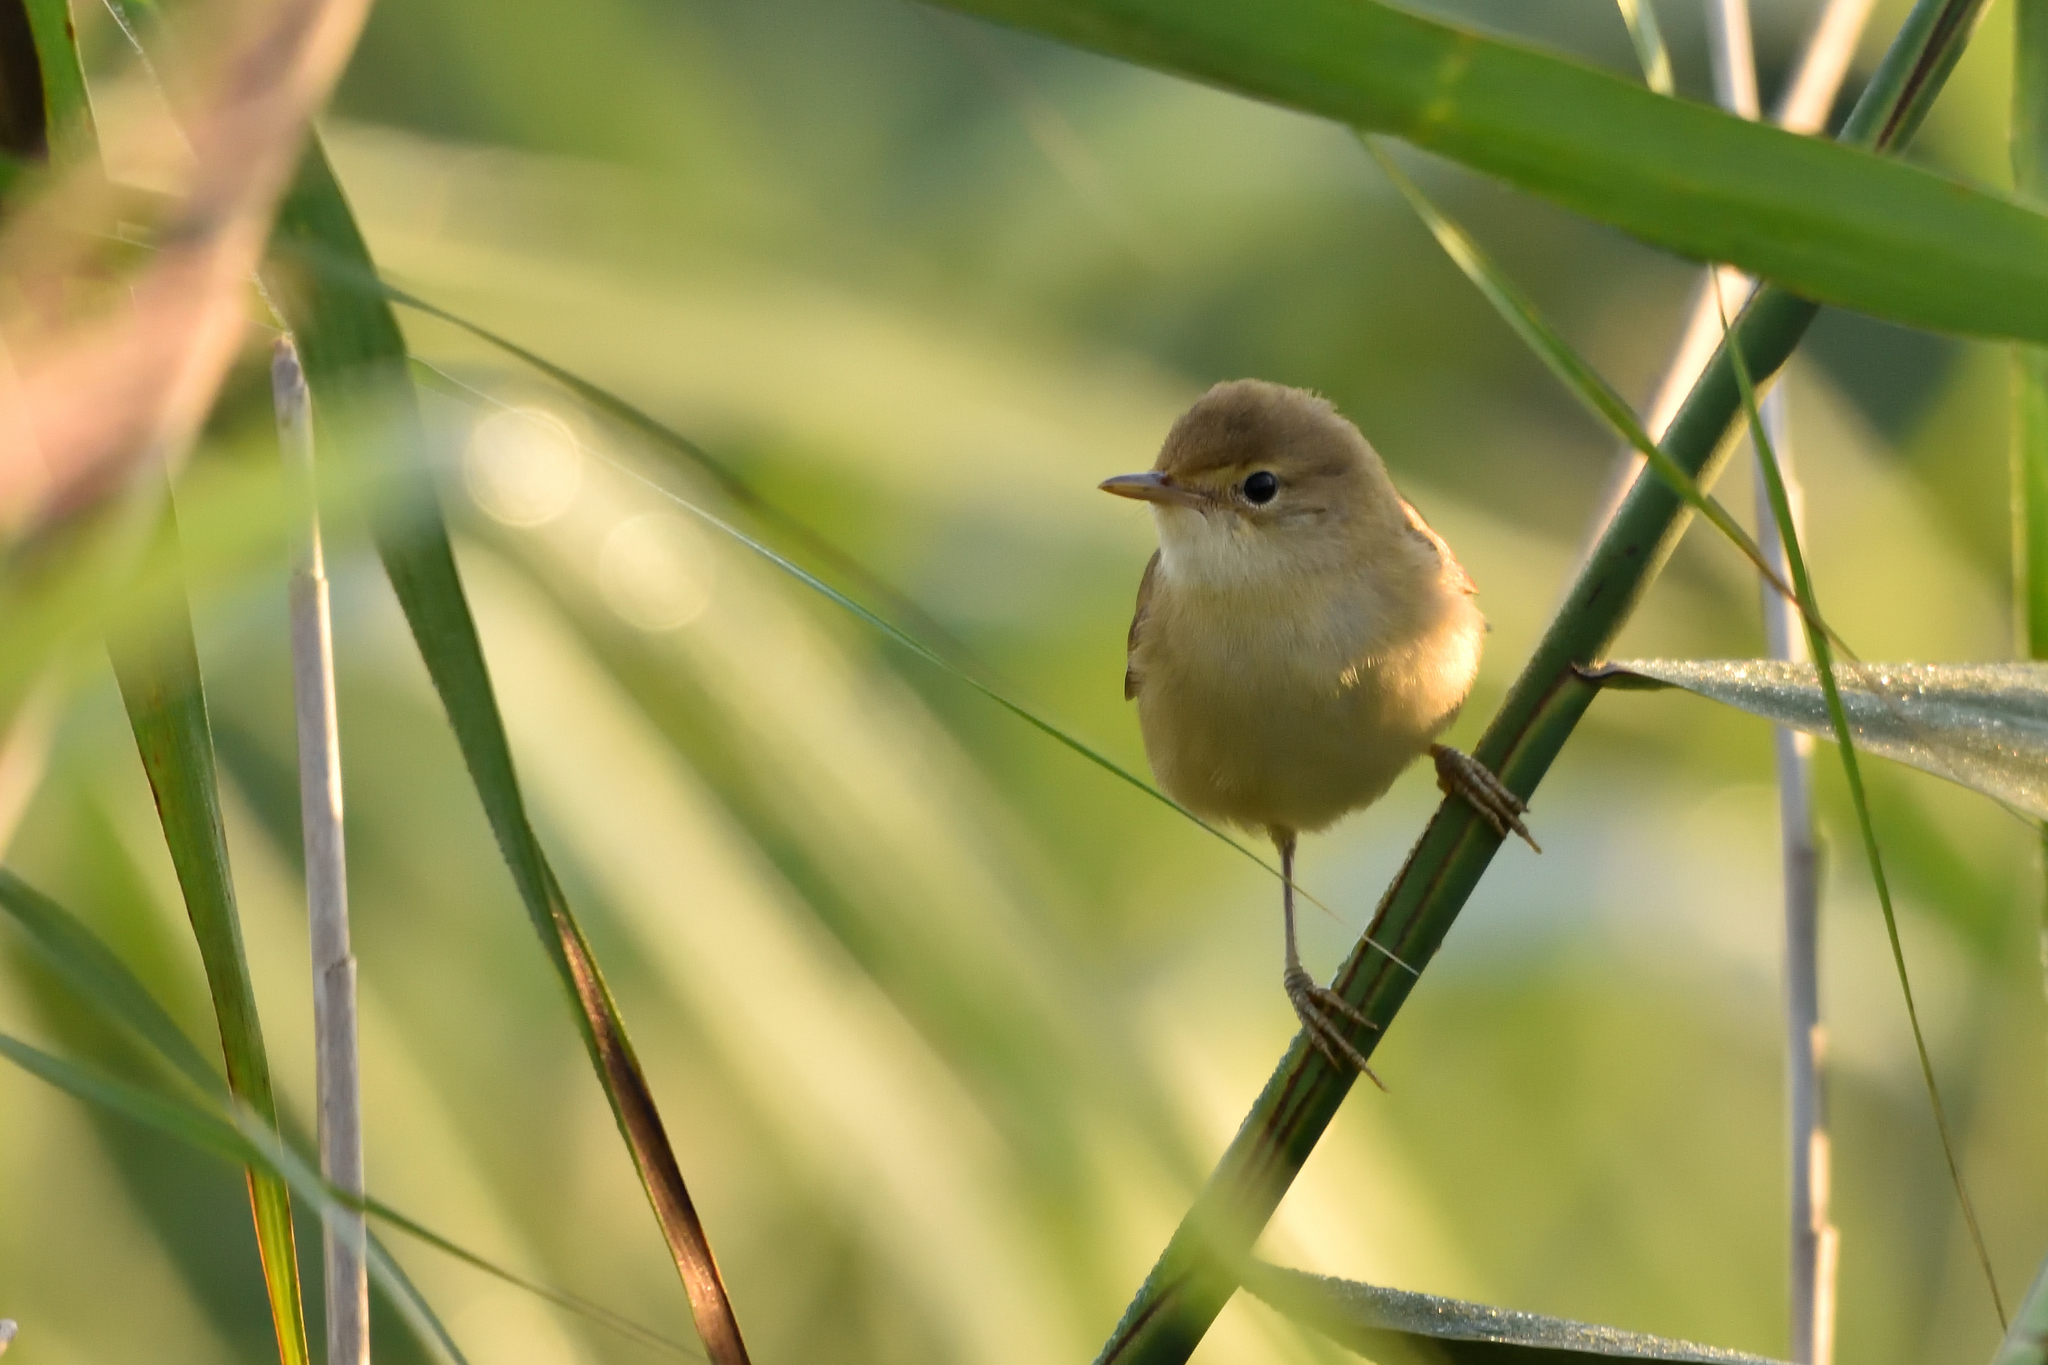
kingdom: Animalia
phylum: Chordata
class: Aves
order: Passeriformes
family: Acrocephalidae
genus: Acrocephalus
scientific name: Acrocephalus scirpaceus
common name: Eurasian reed warbler
